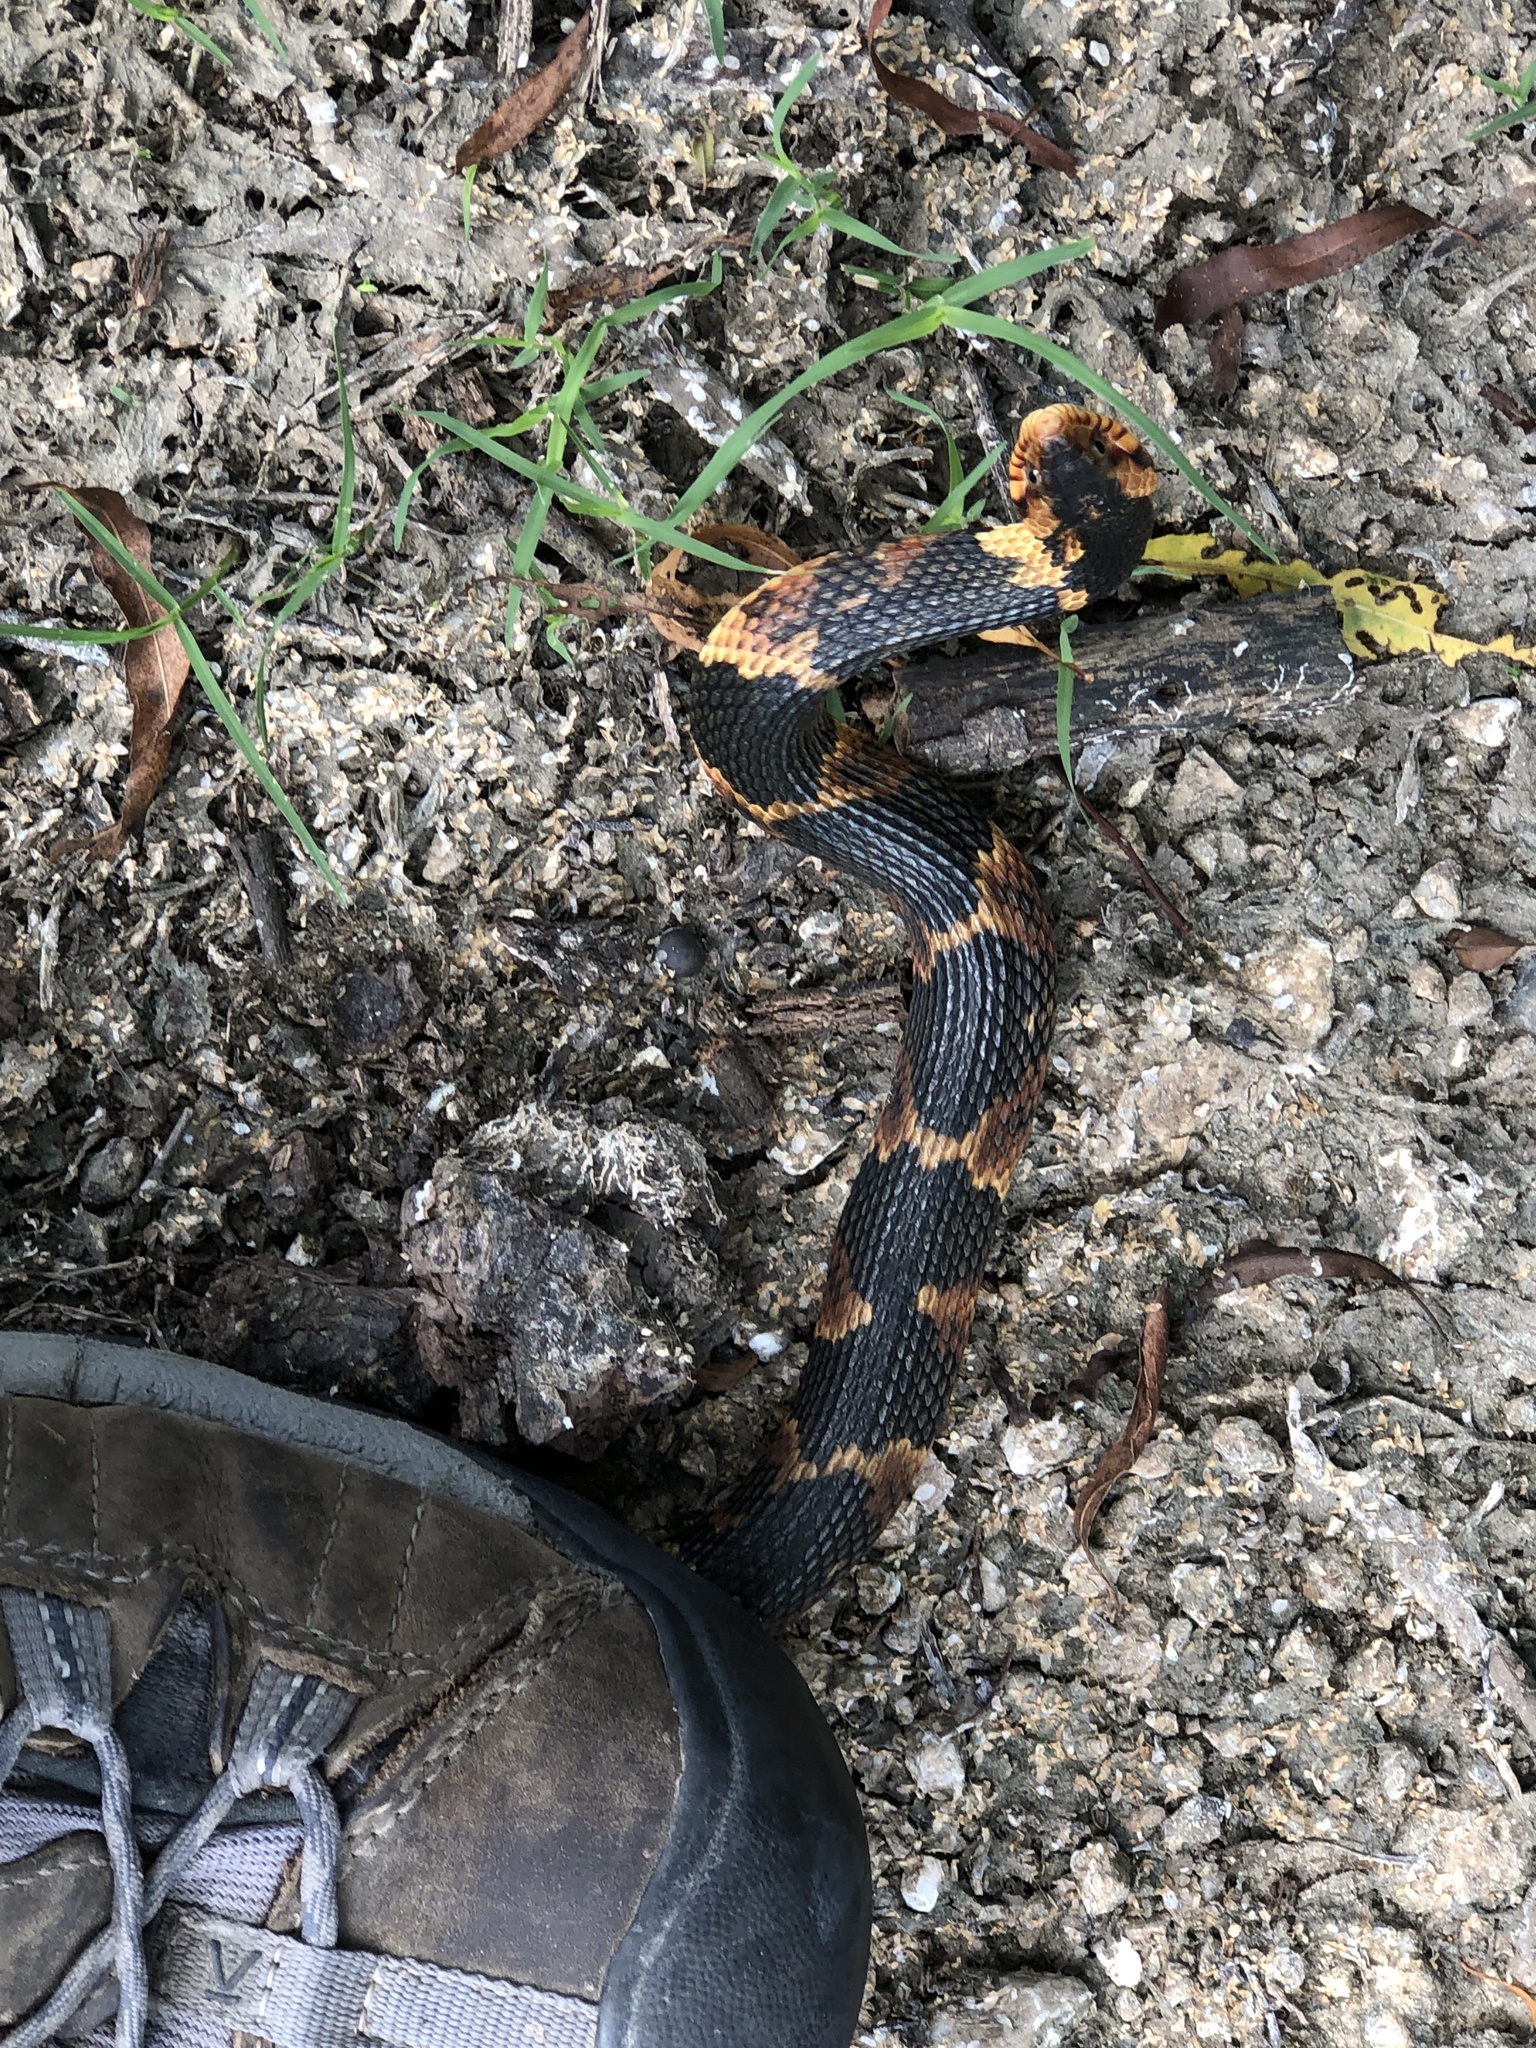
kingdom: Animalia
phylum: Chordata
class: Squamata
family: Colubridae
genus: Nerodia
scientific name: Nerodia fasciata
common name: Southern water snake
